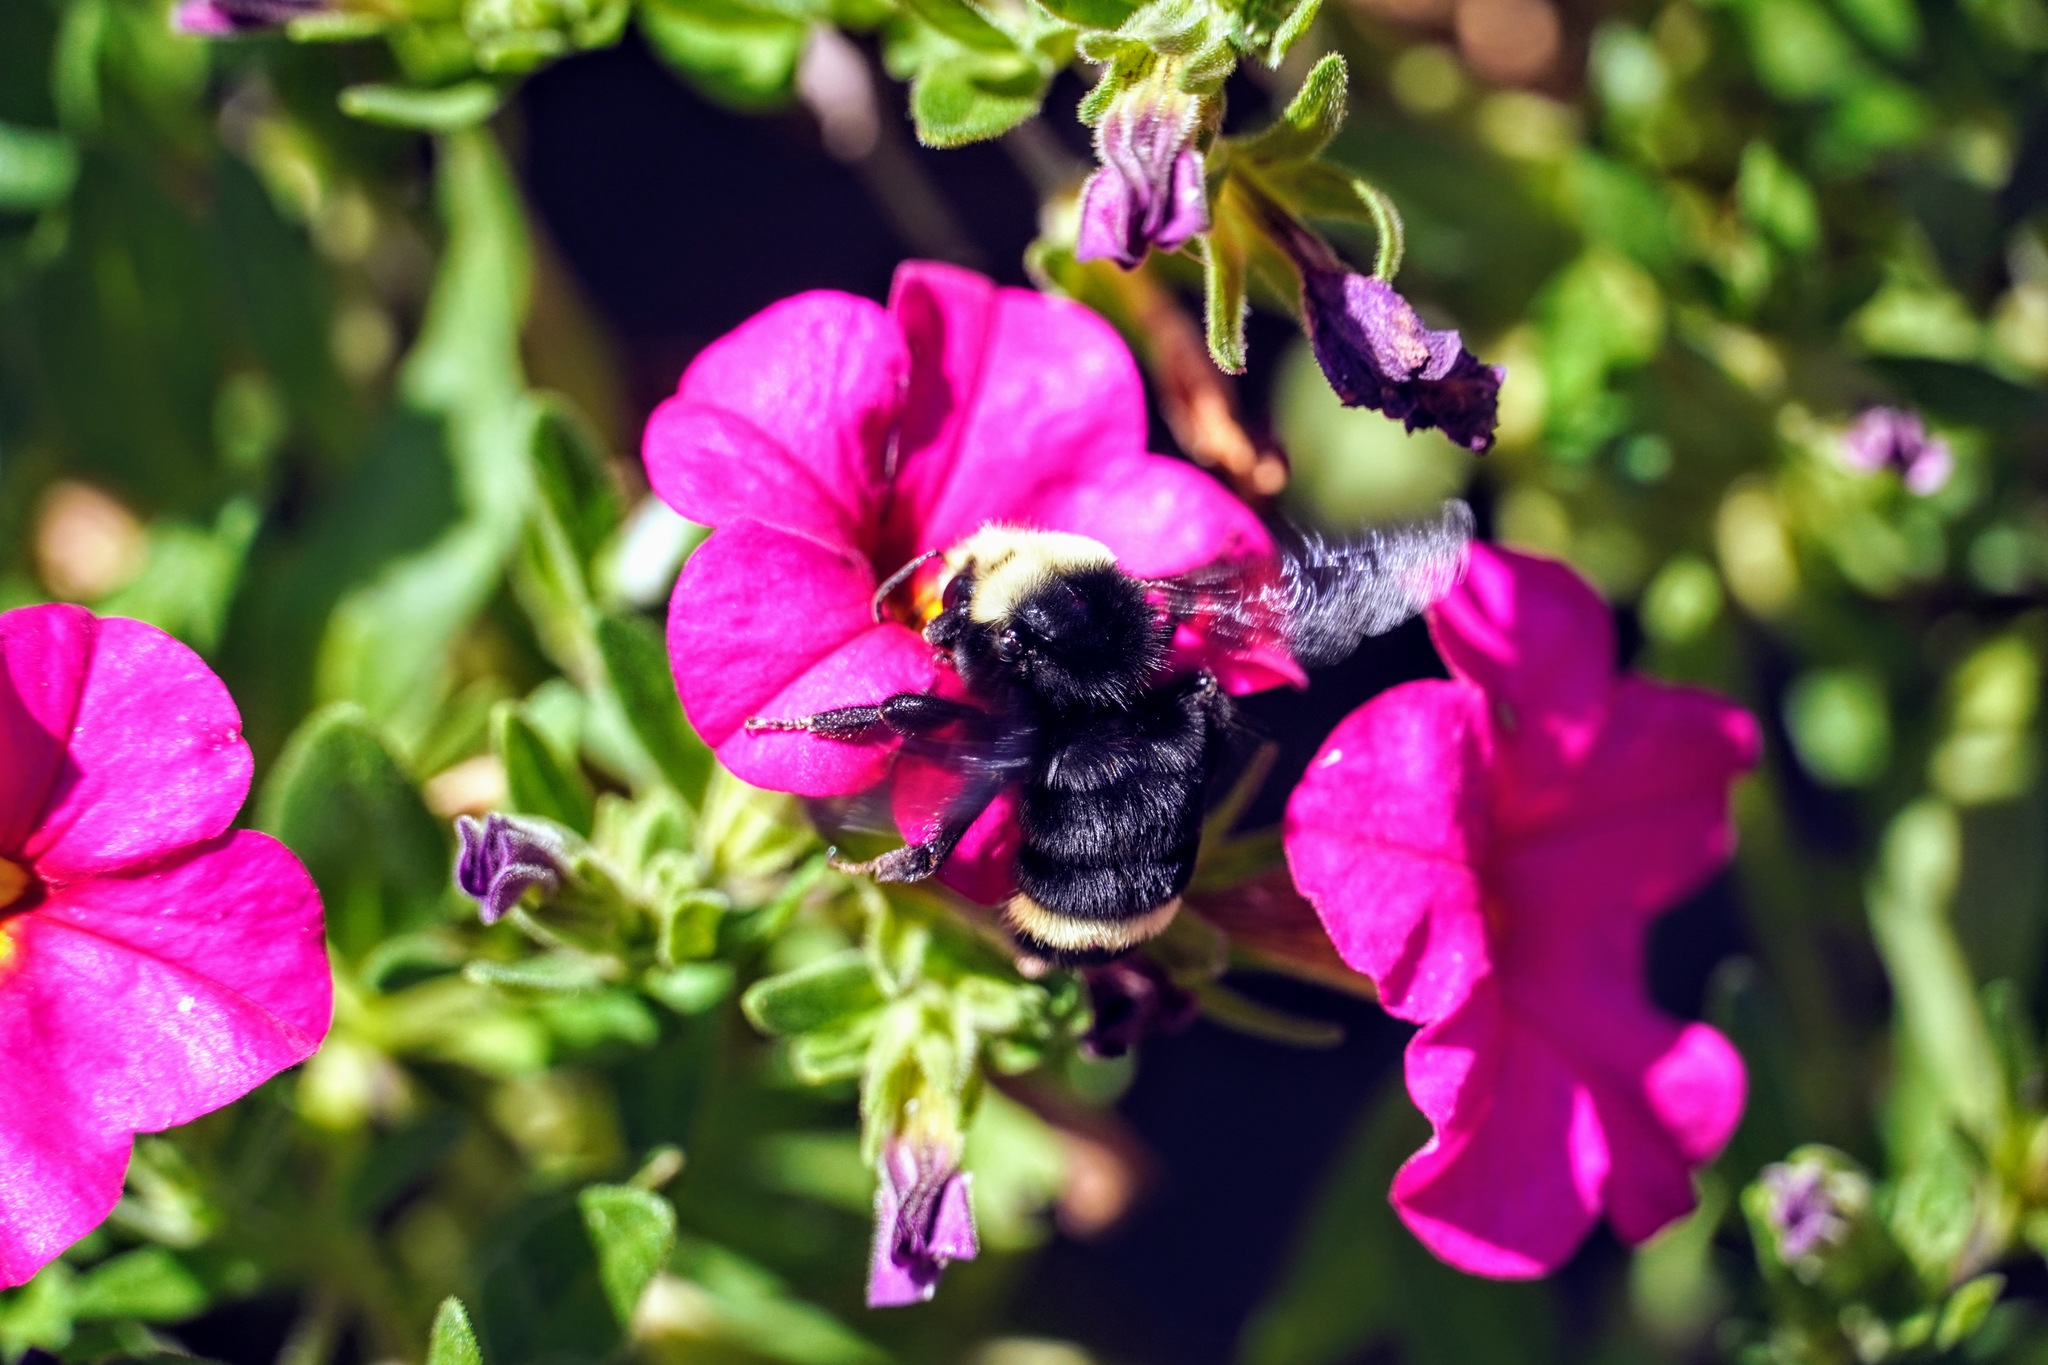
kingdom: Animalia
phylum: Arthropoda
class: Insecta
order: Hymenoptera
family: Apidae
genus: Bombus
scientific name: Bombus vosnesenskii
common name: Vosnesensky bumble bee
